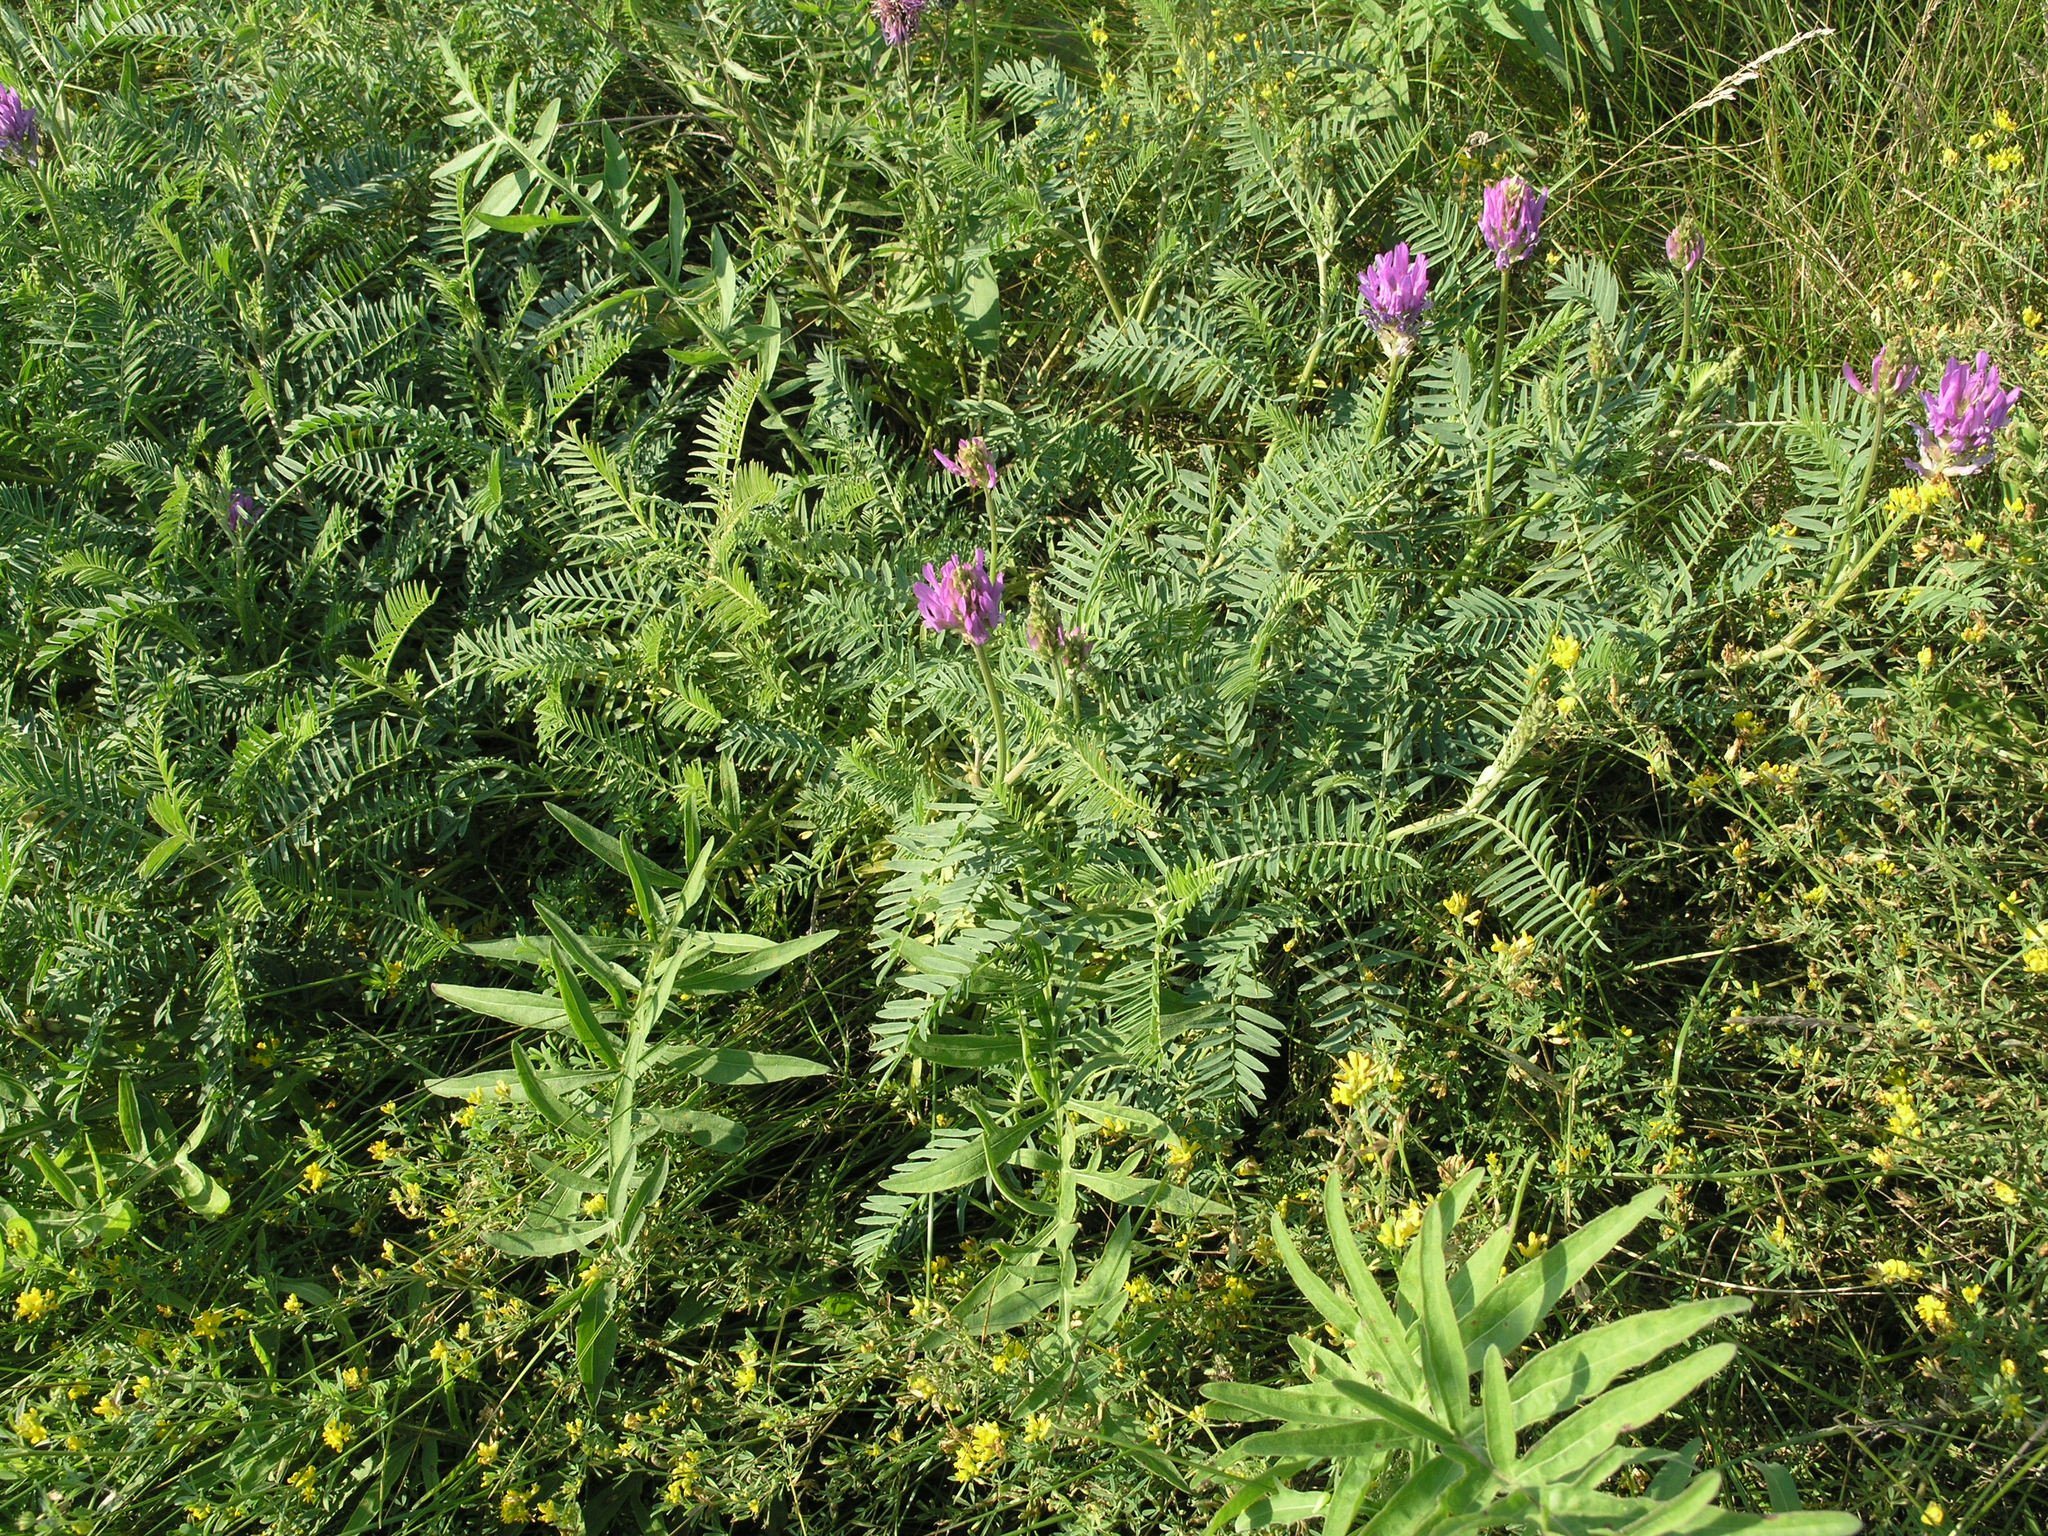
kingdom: Plantae
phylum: Tracheophyta
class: Magnoliopsida
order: Fabales
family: Fabaceae
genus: Astragalus
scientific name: Astragalus onobrychis
